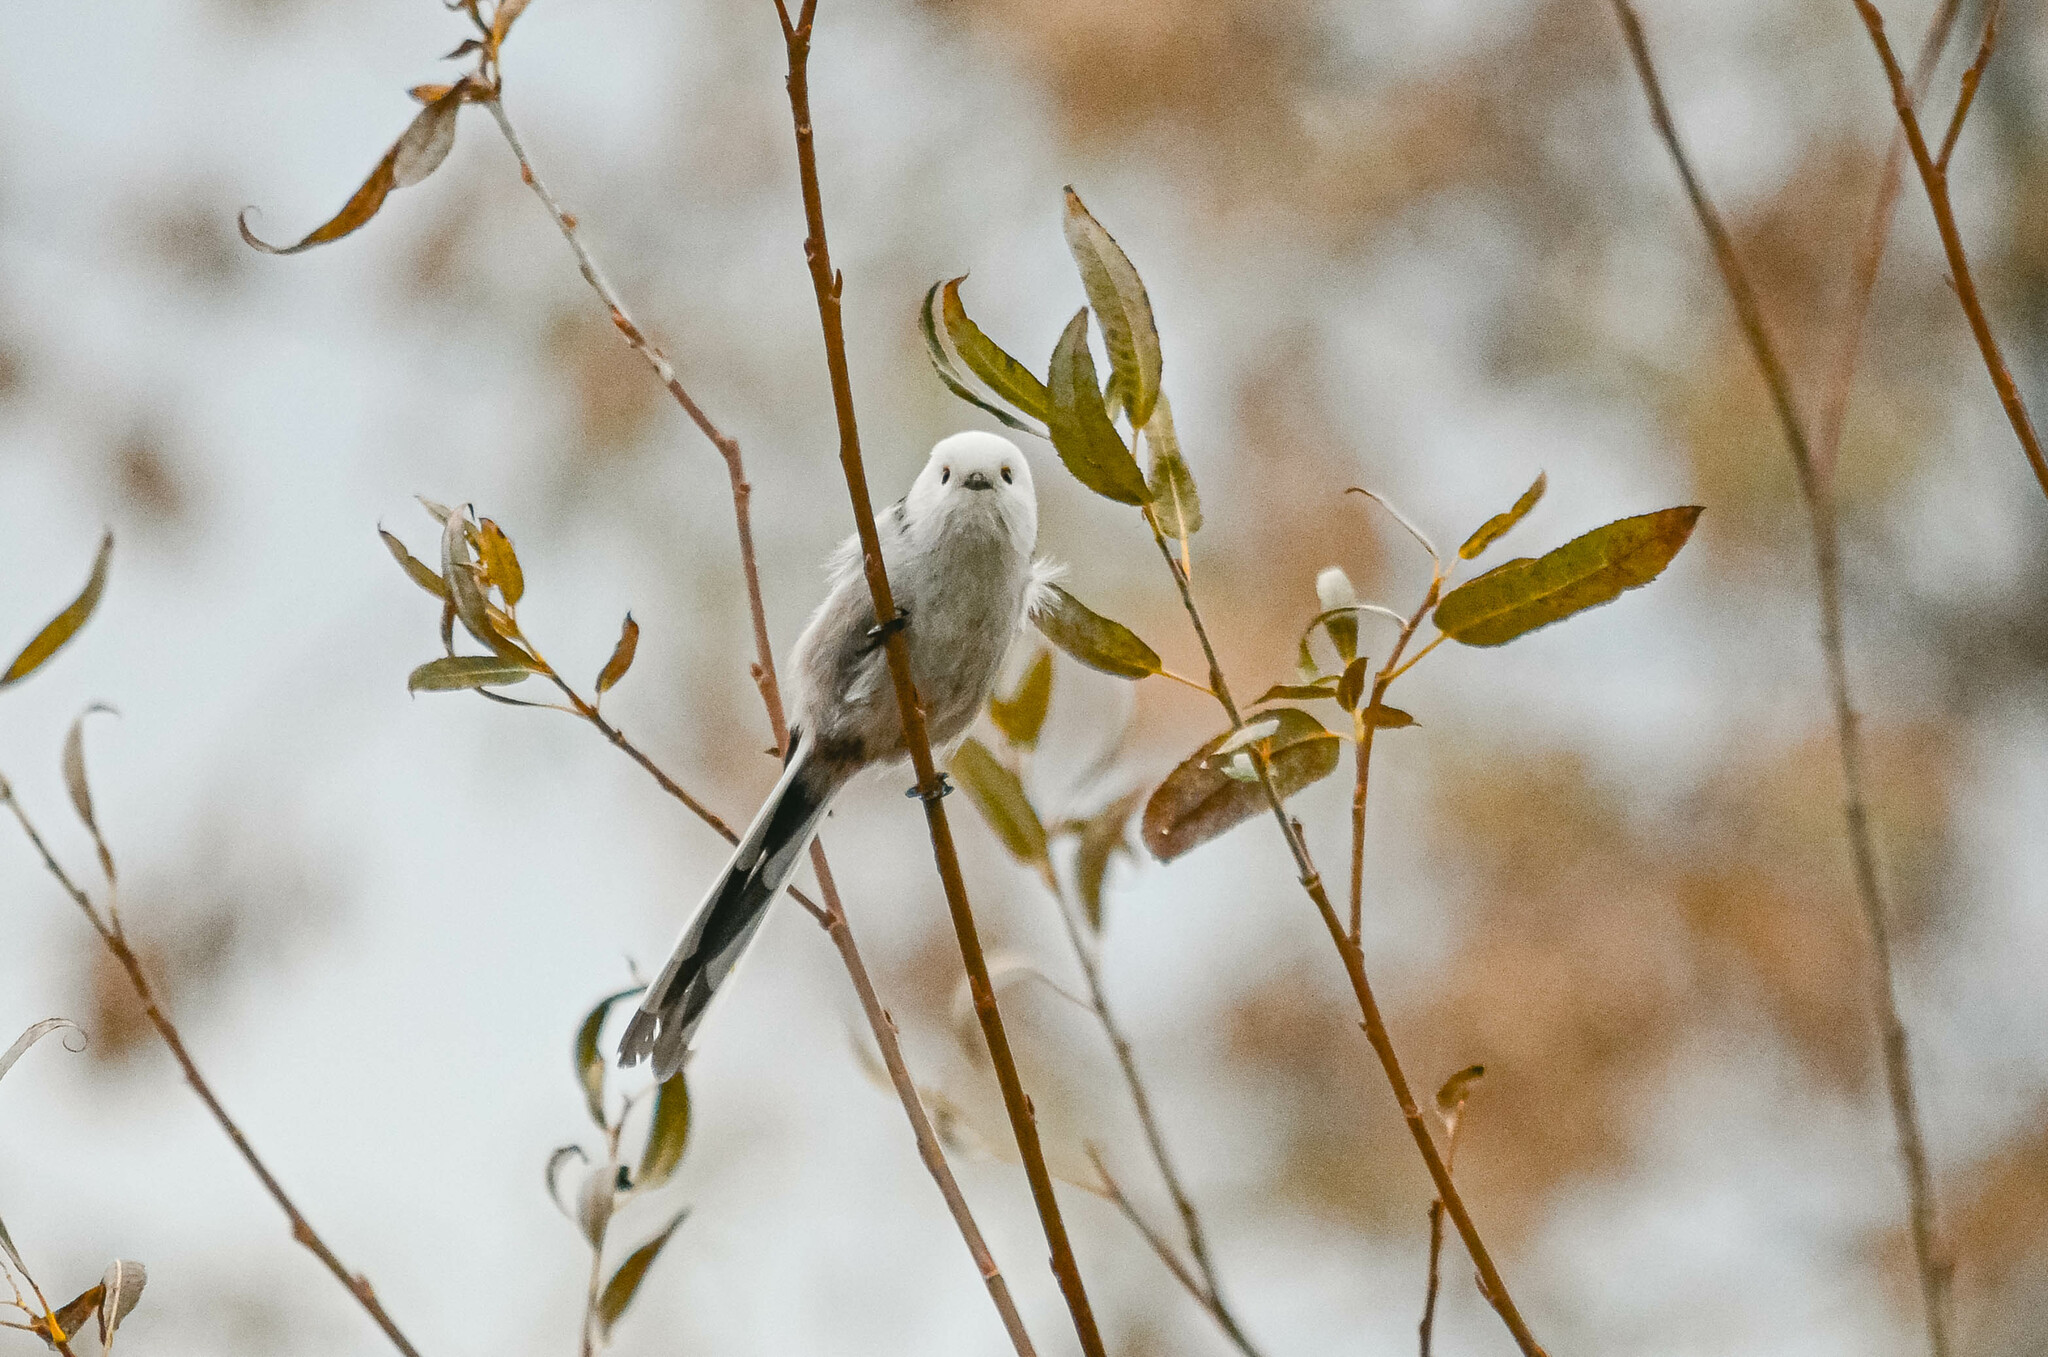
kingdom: Animalia
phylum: Chordata
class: Aves
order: Passeriformes
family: Aegithalidae
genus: Aegithalos
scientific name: Aegithalos caudatus
